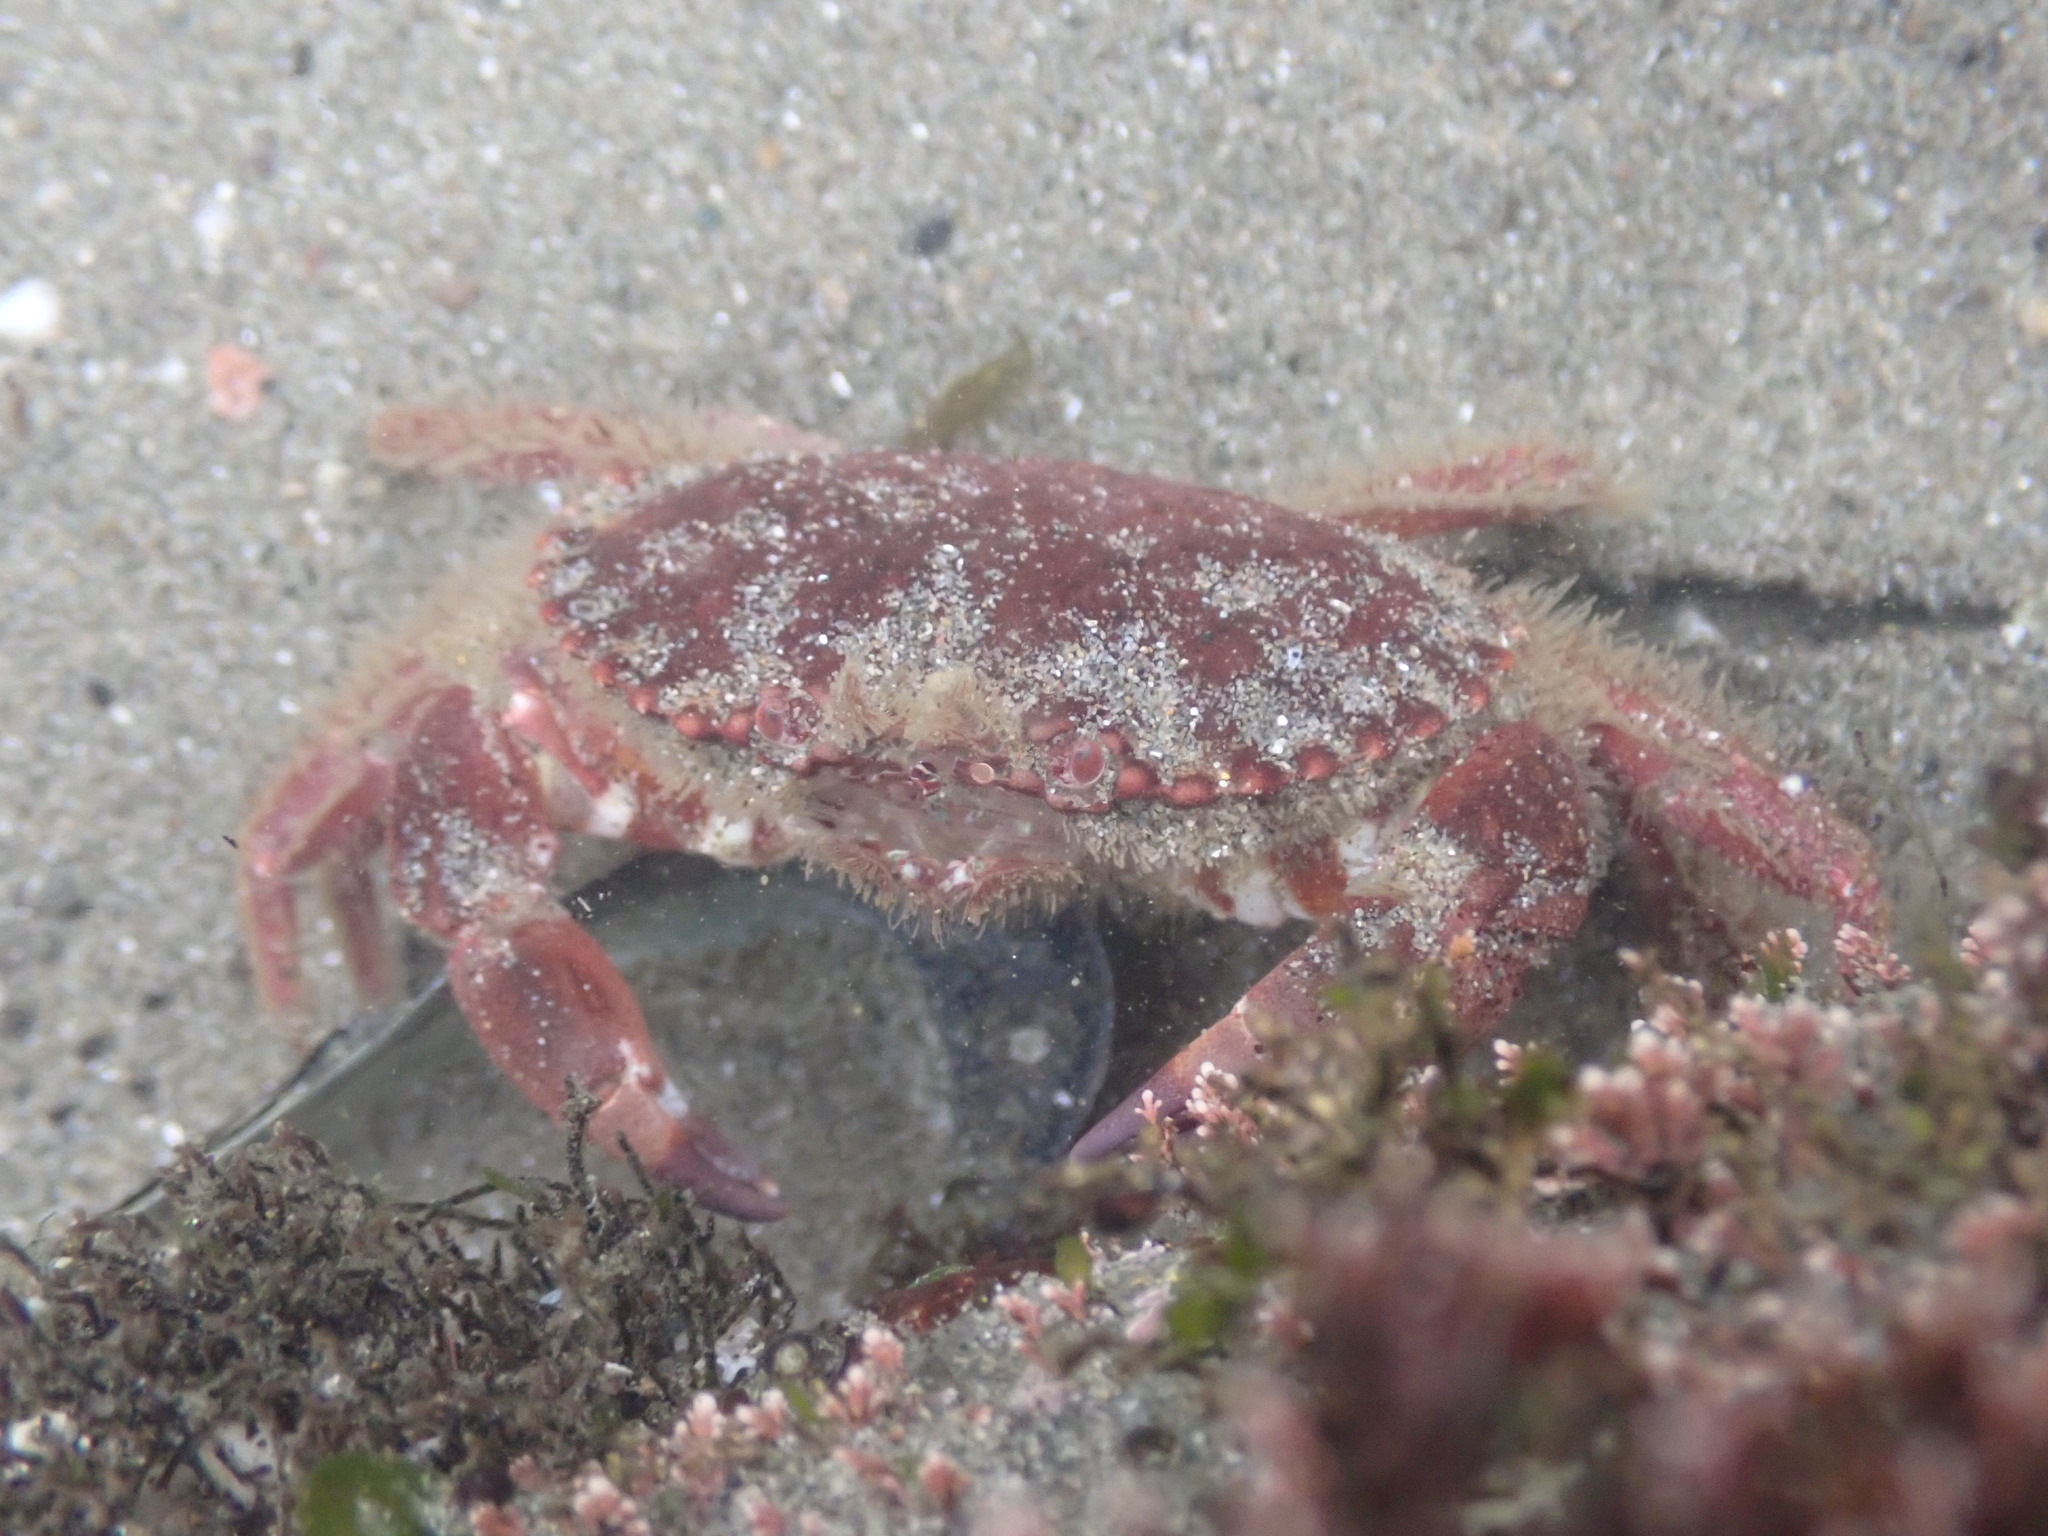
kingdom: Animalia
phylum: Arthropoda
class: Malacostraca
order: Decapoda
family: Cancridae
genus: Romaleon
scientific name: Romaleon antennarium
